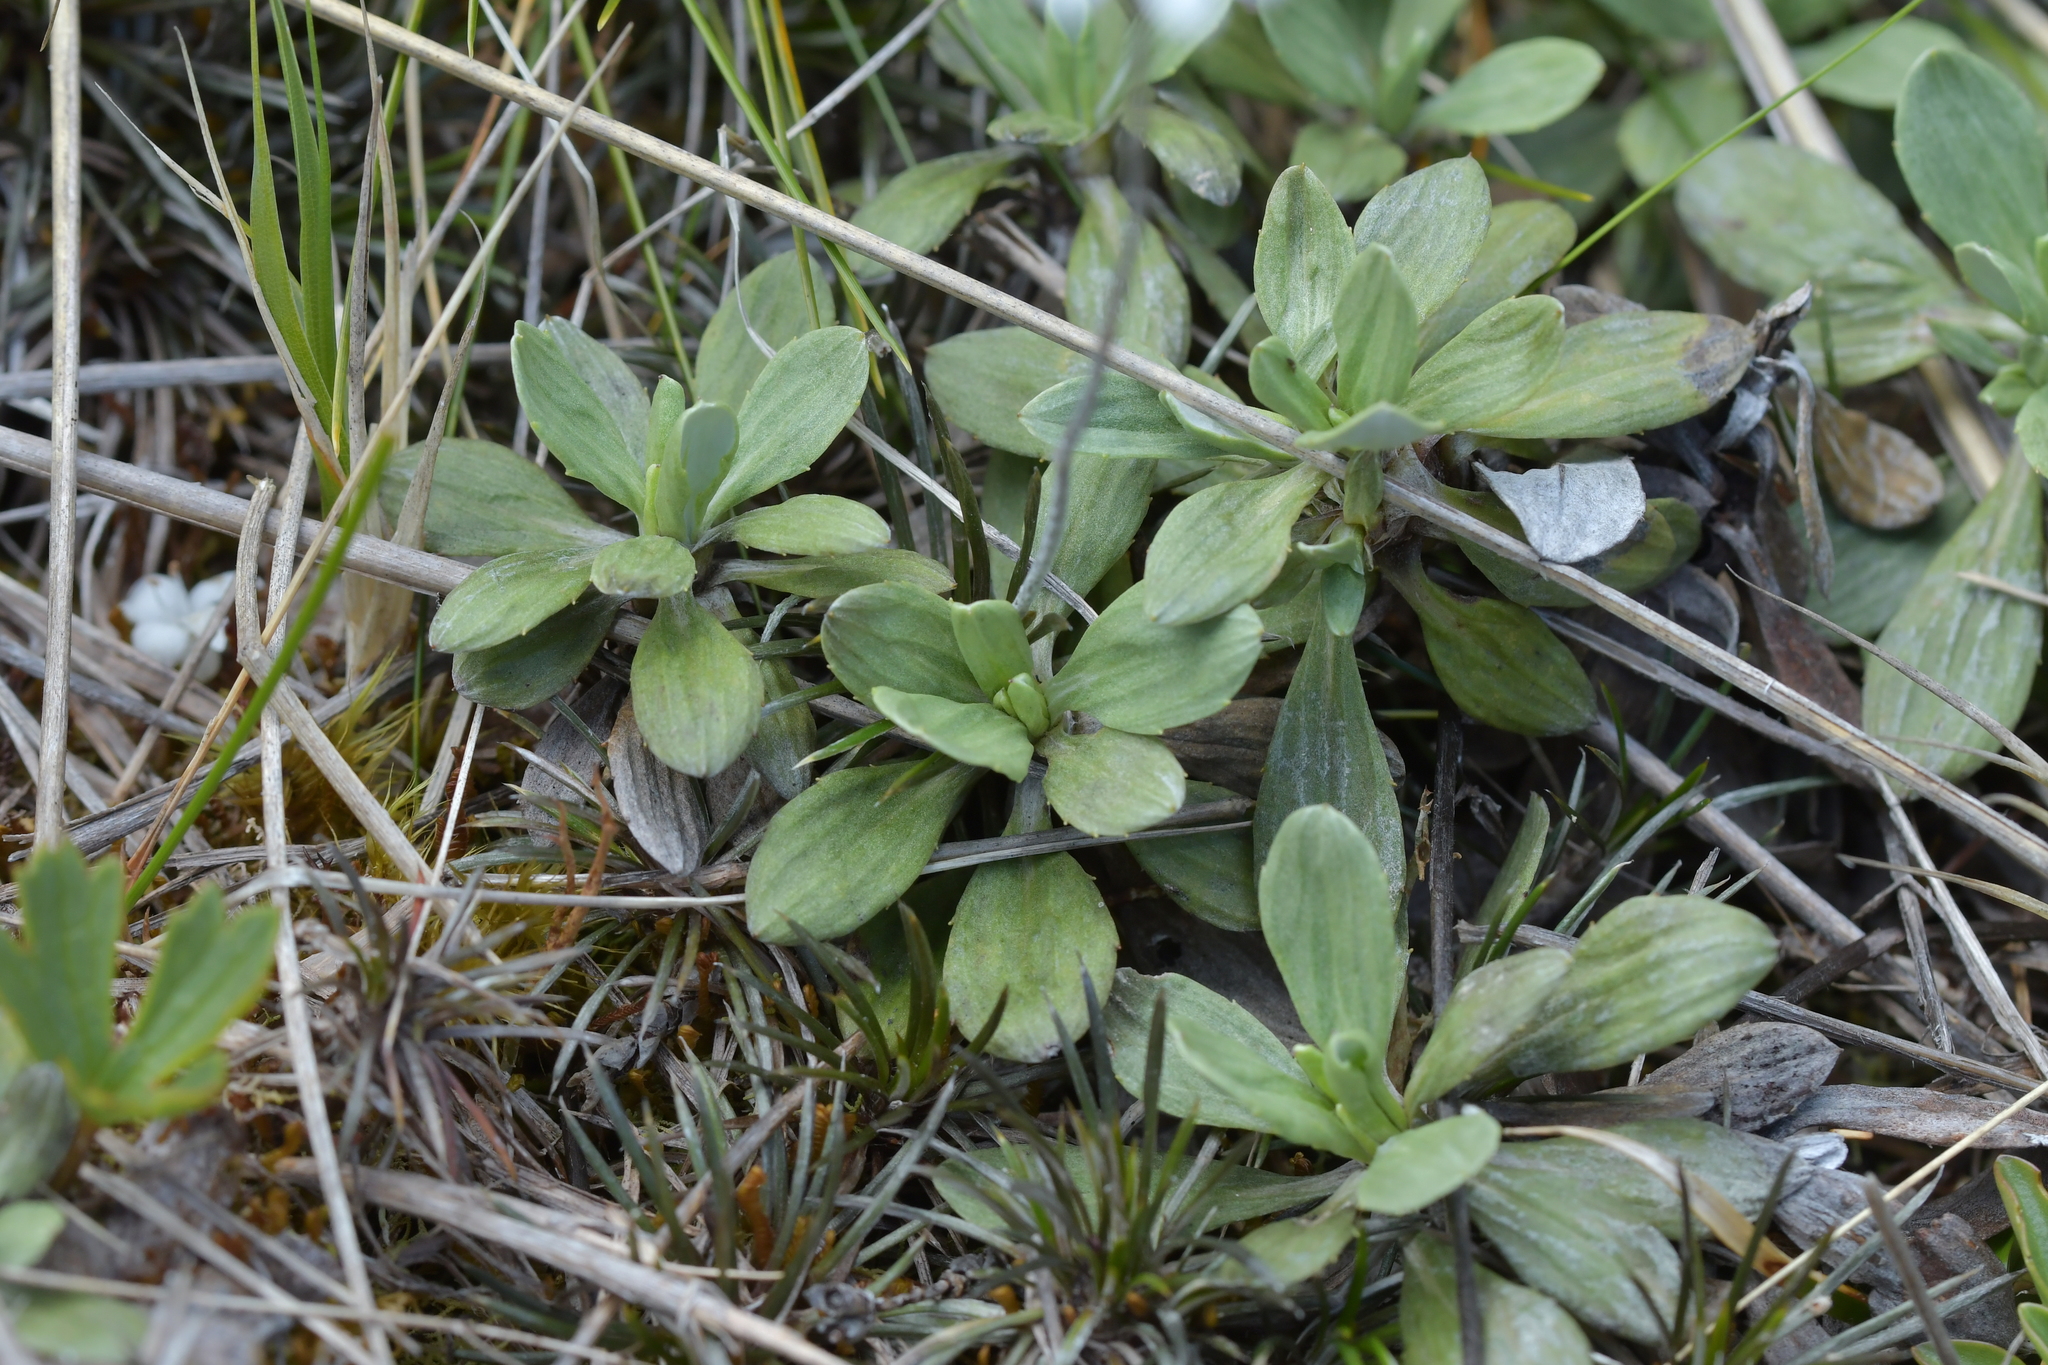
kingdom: Plantae
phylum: Tracheophyta
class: Magnoliopsida
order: Asterales
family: Asteraceae
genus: Celmisia
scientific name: Celmisia discolor
